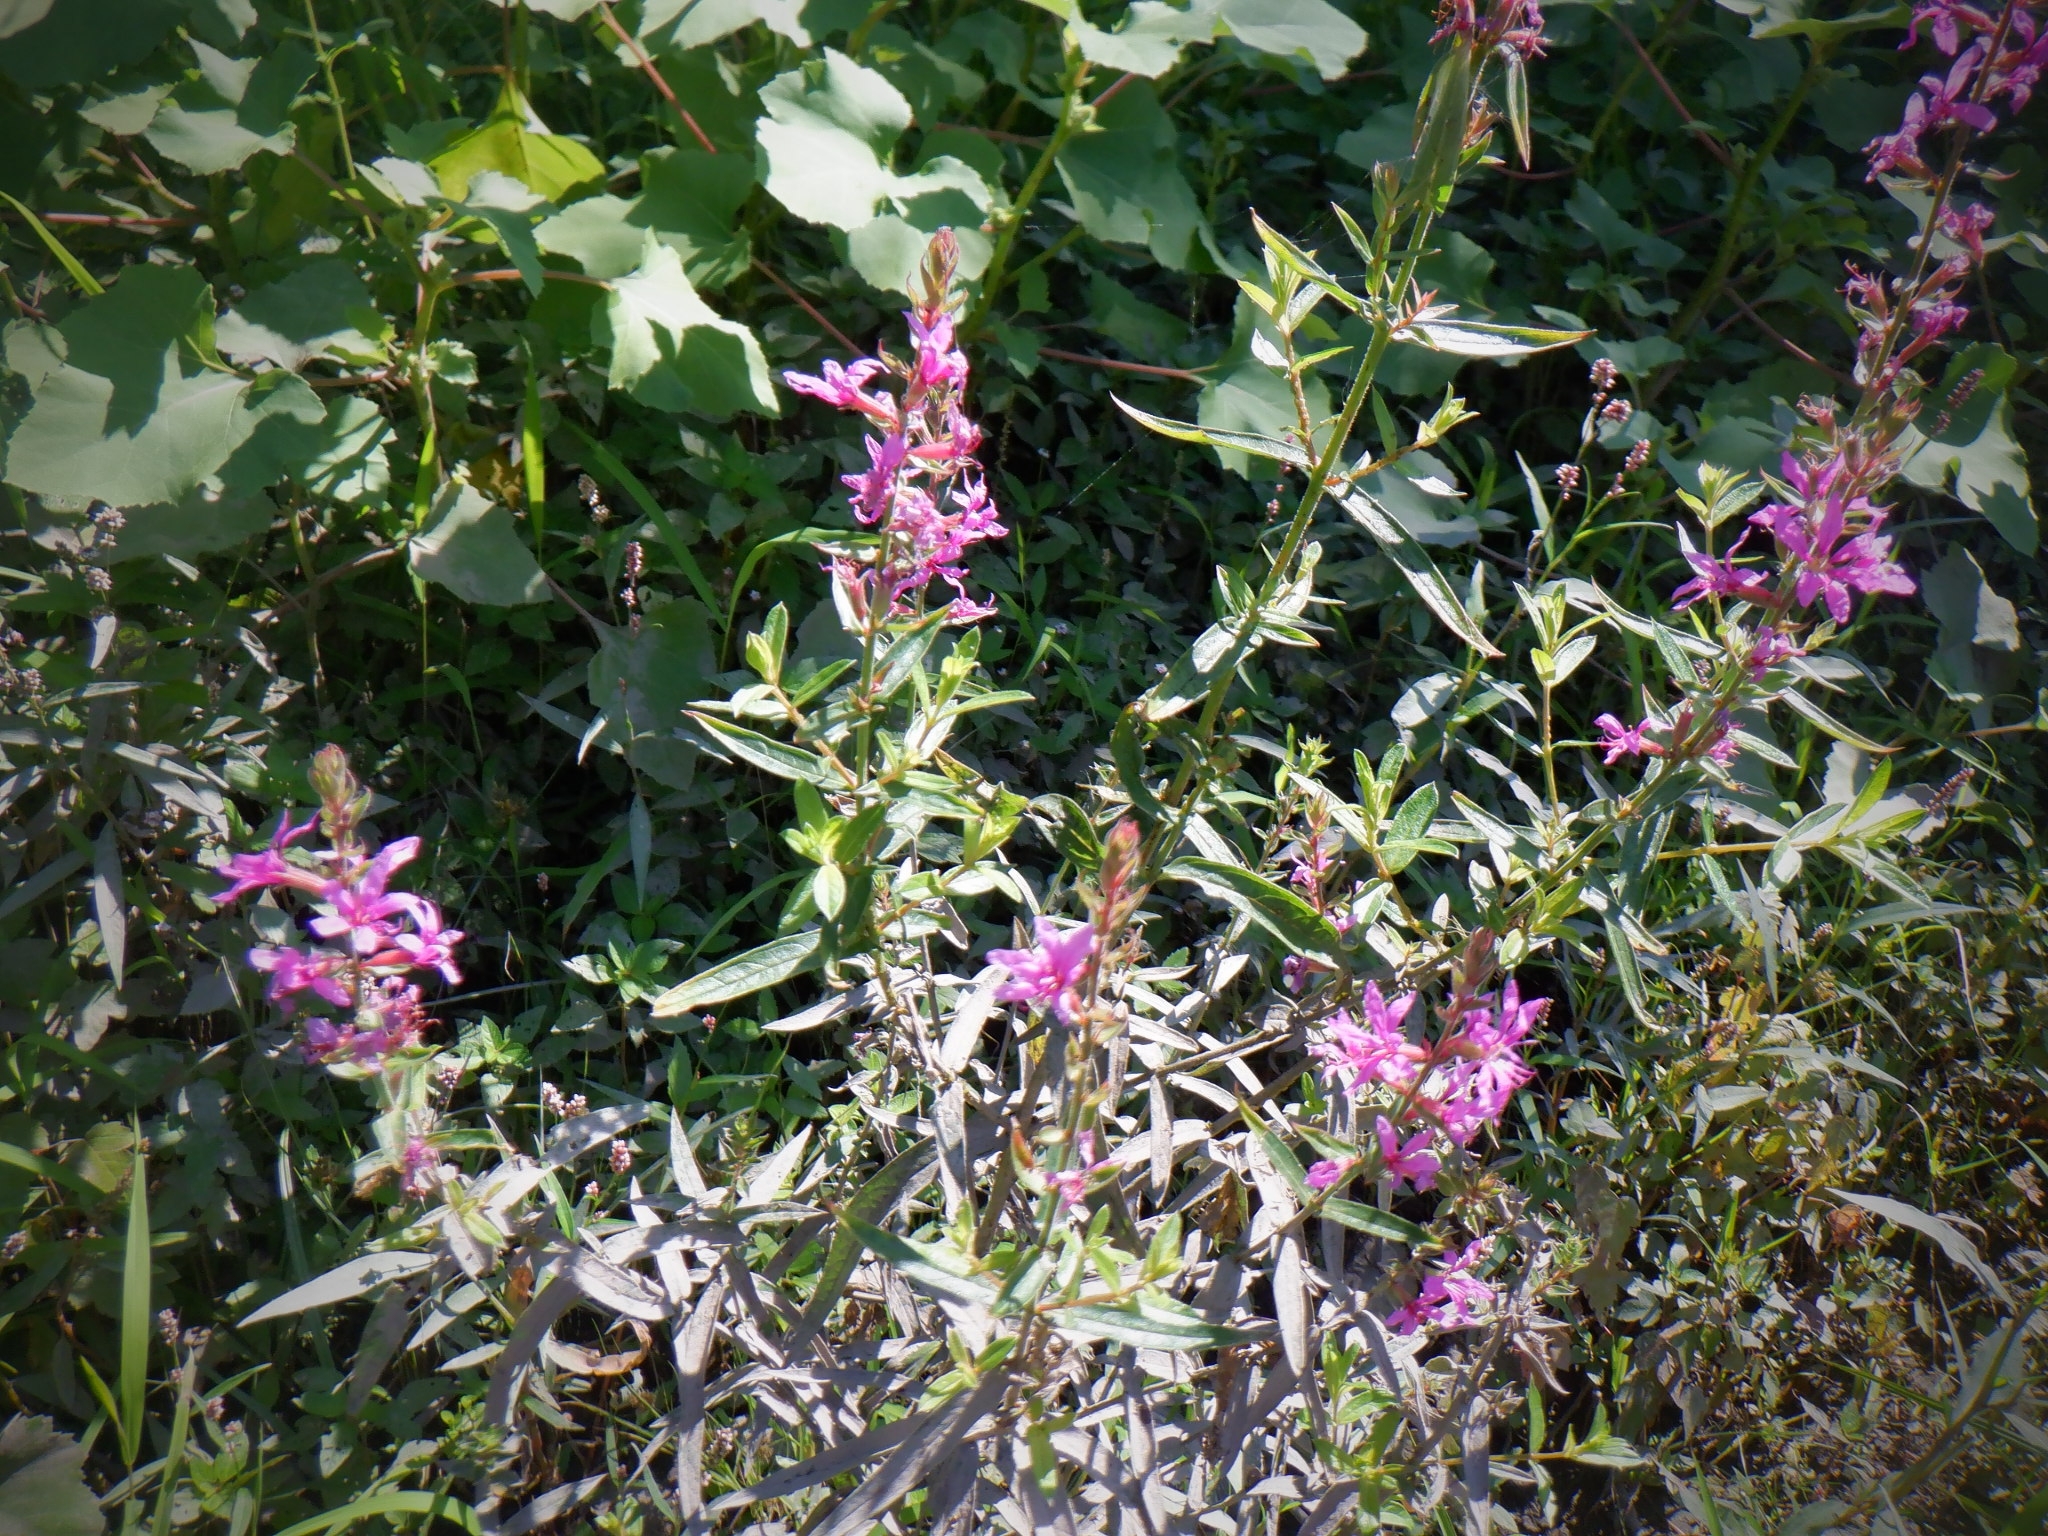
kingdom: Plantae
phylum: Tracheophyta
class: Magnoliopsida
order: Myrtales
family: Lythraceae
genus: Lythrum
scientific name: Lythrum salicaria
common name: Purple loosestrife
